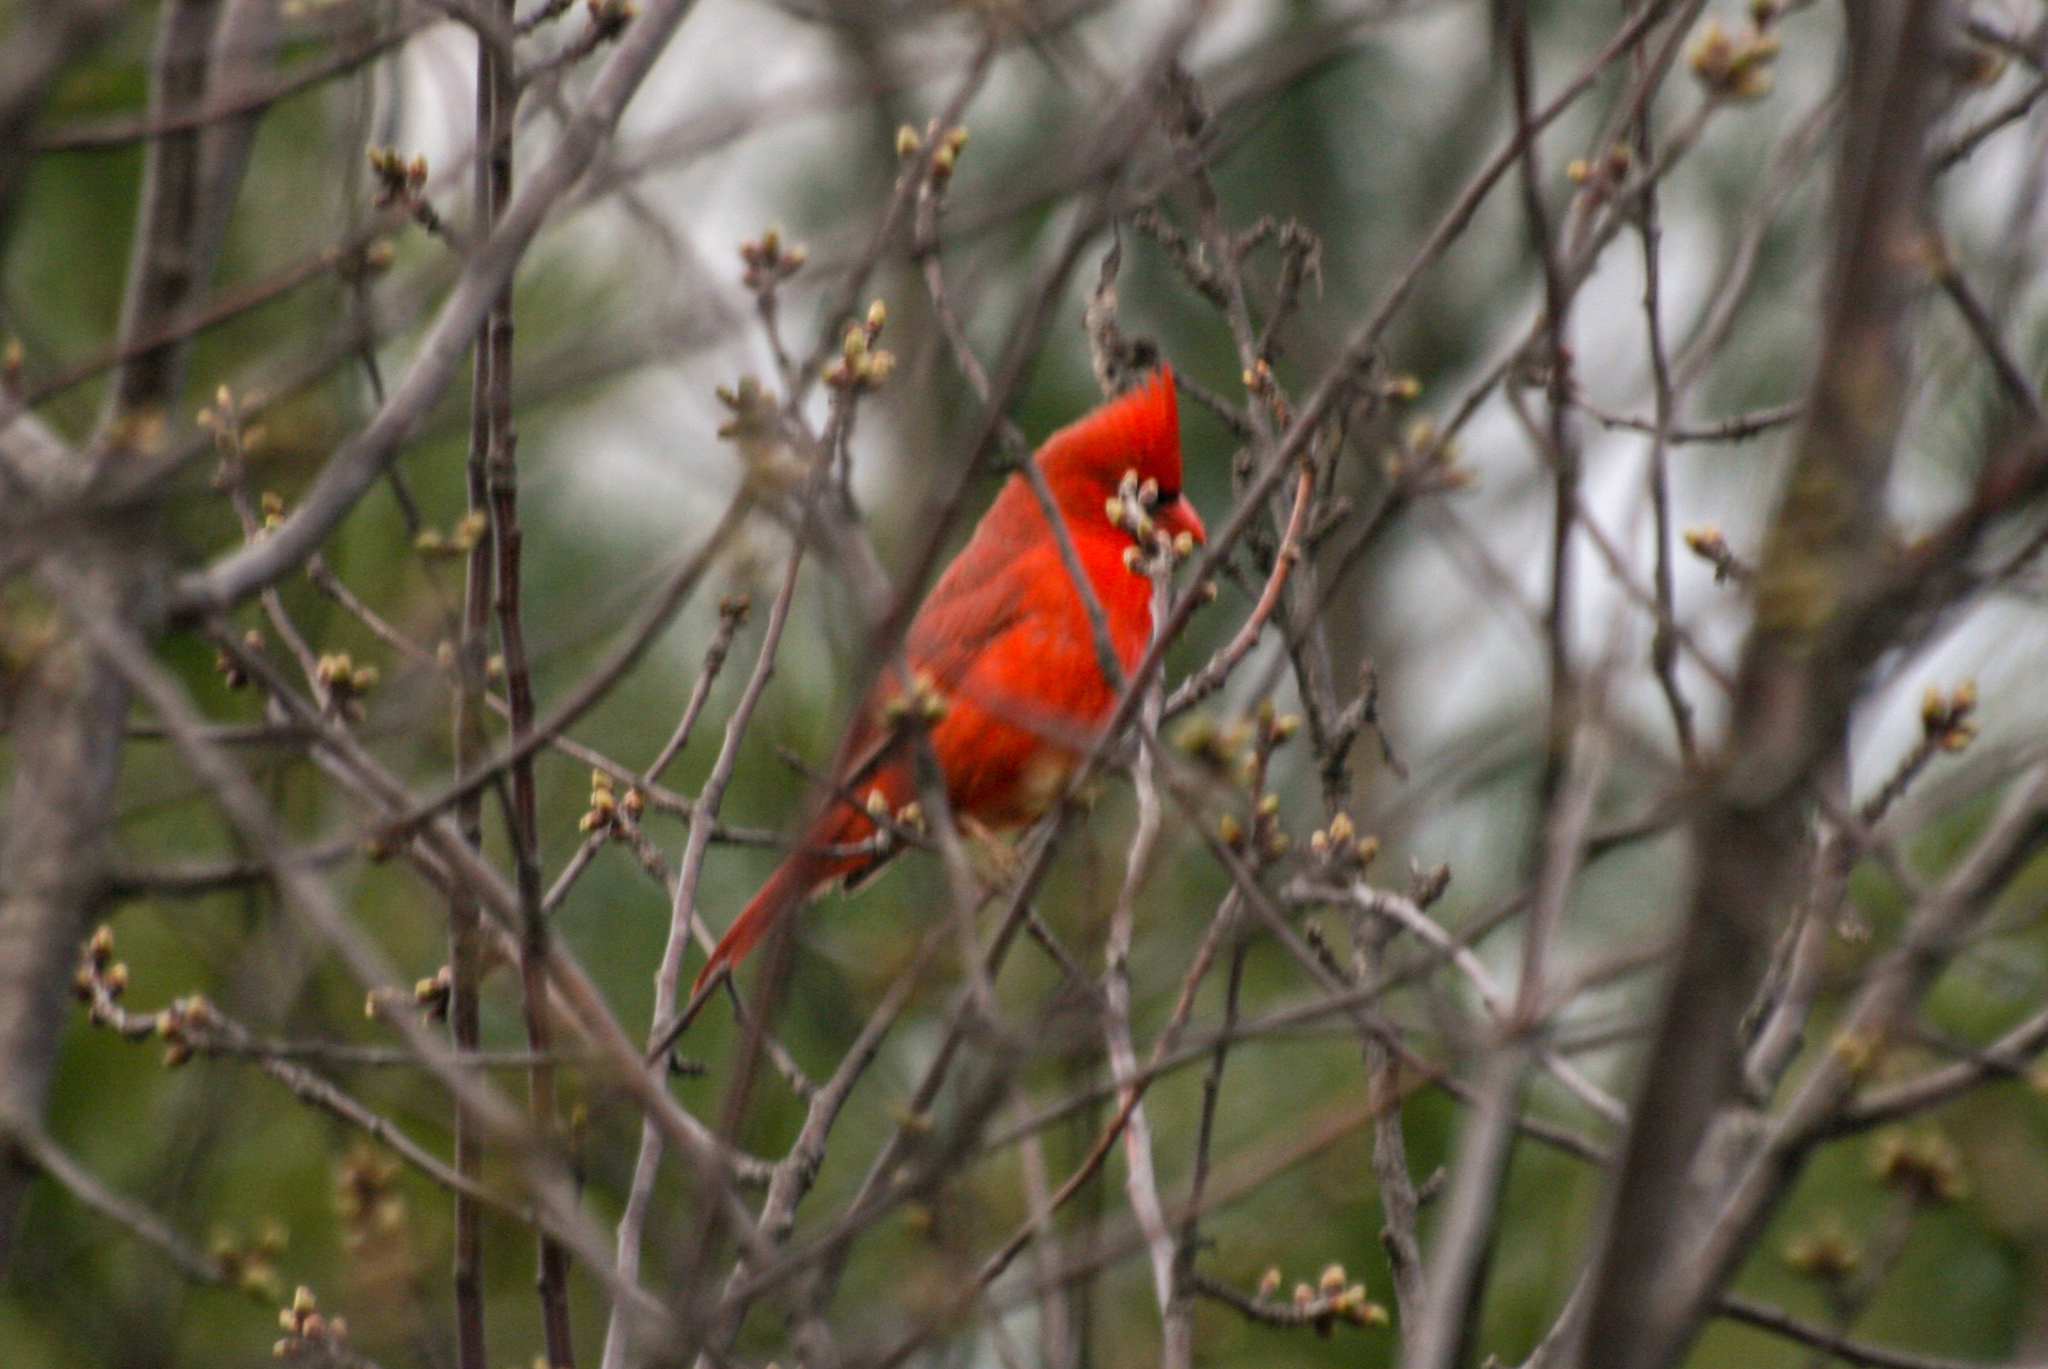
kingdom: Animalia
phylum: Chordata
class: Aves
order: Passeriformes
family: Cardinalidae
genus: Cardinalis
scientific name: Cardinalis cardinalis
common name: Northern cardinal
